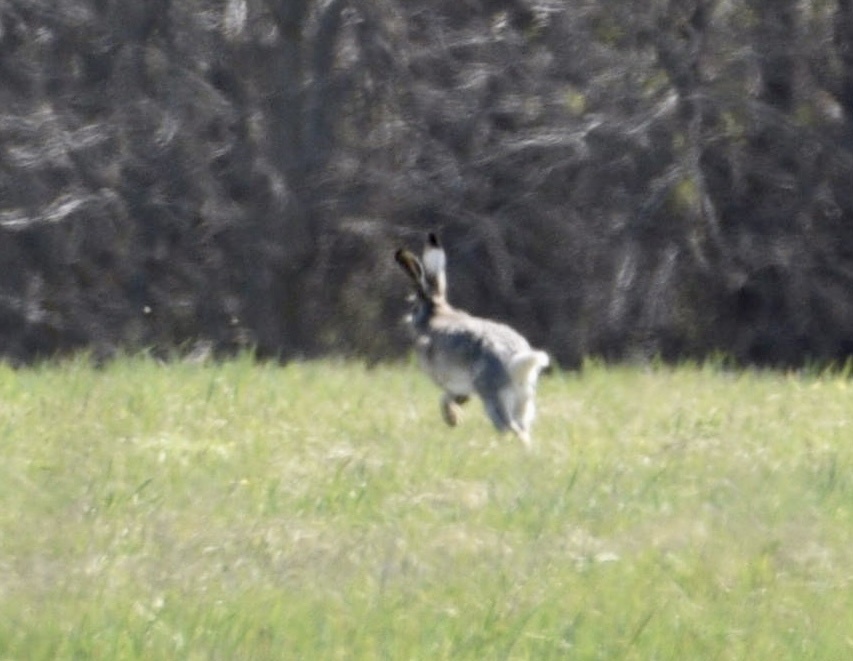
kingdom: Animalia
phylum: Chordata
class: Mammalia
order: Lagomorpha
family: Leporidae
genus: Lepus
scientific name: Lepus europaeus
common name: European hare
